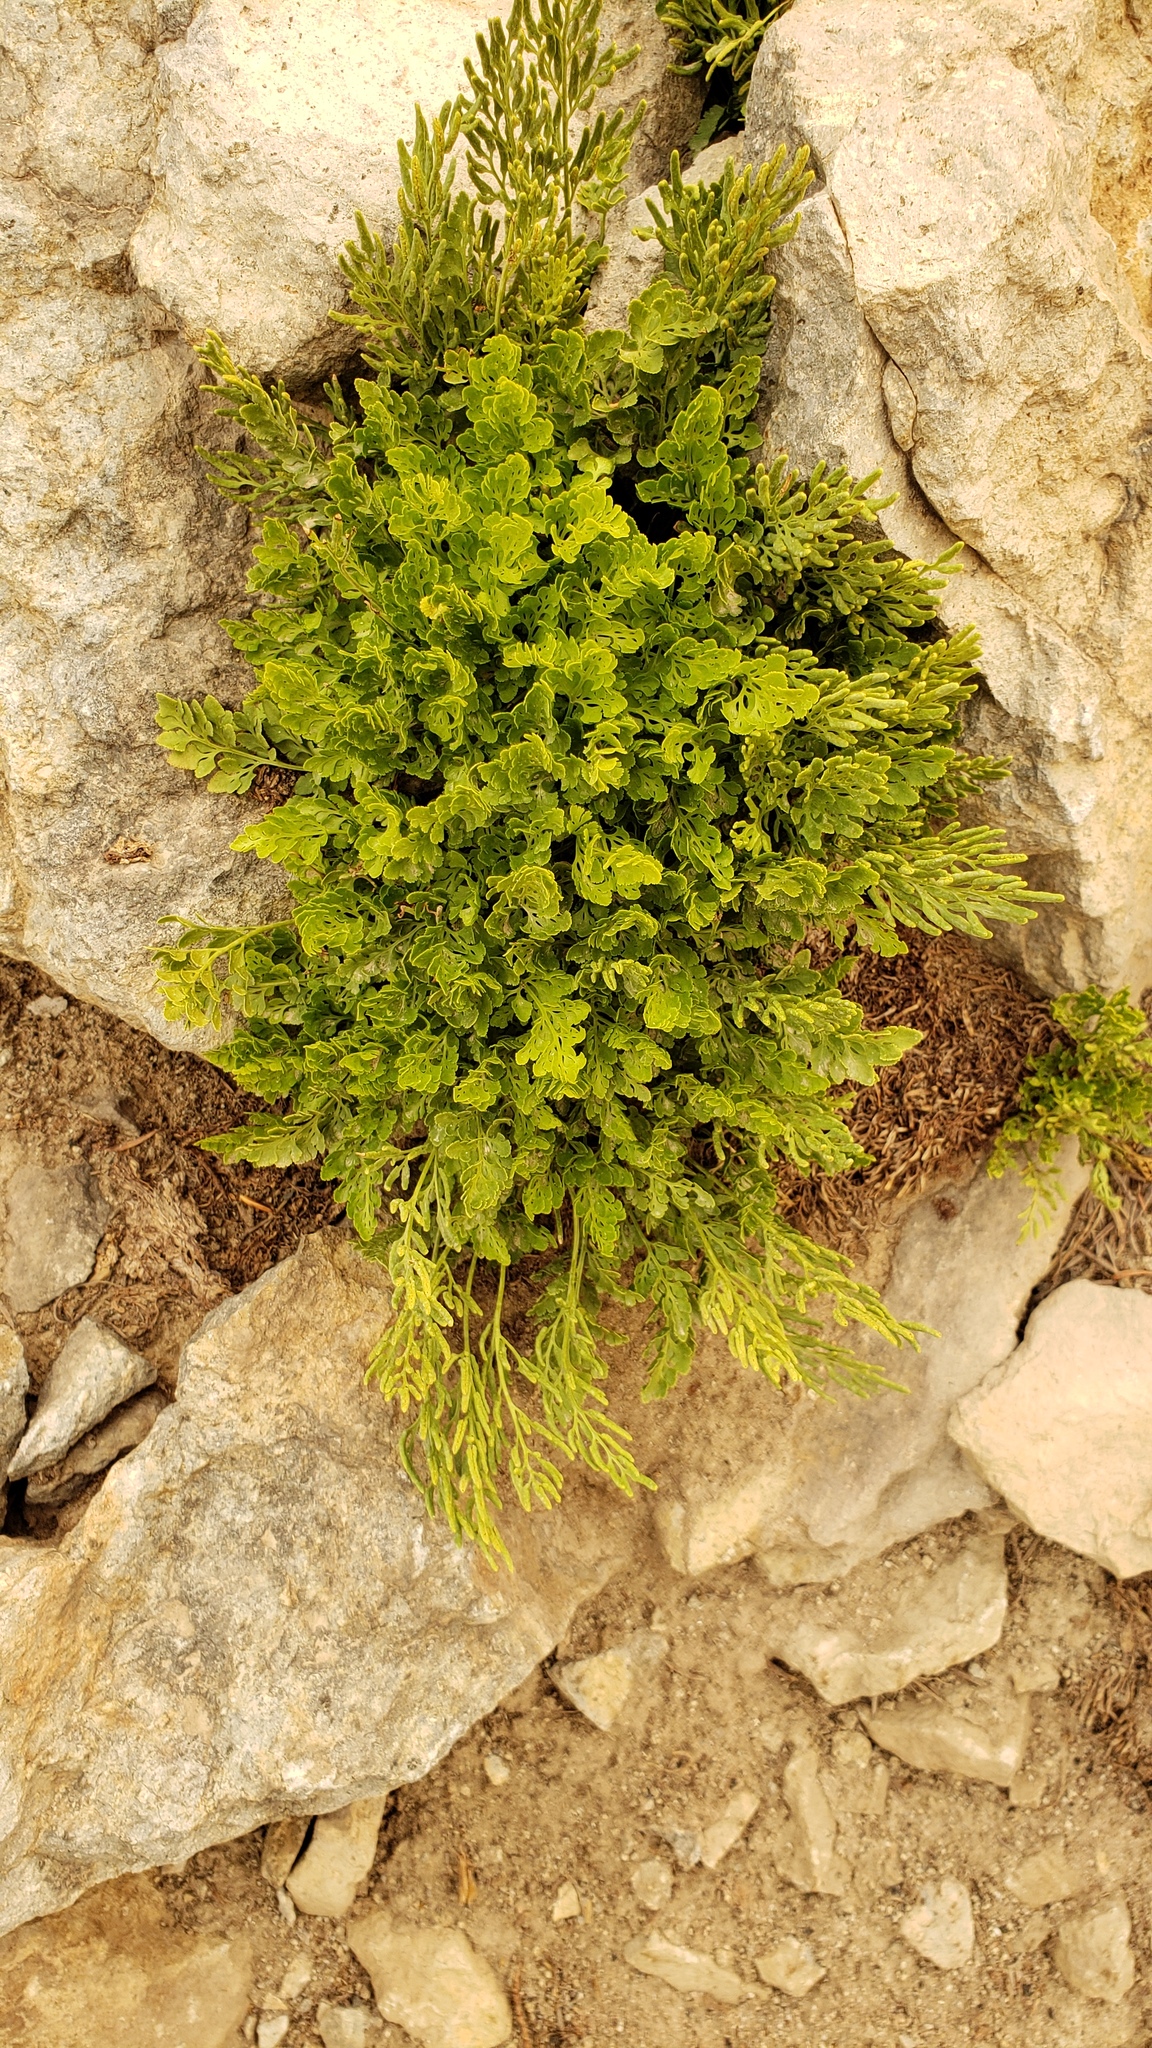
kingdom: Plantae
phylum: Tracheophyta
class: Polypodiopsida
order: Polypodiales
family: Pteridaceae
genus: Cryptogramma
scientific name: Cryptogramma cascadensis
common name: Cascade parsley fern
